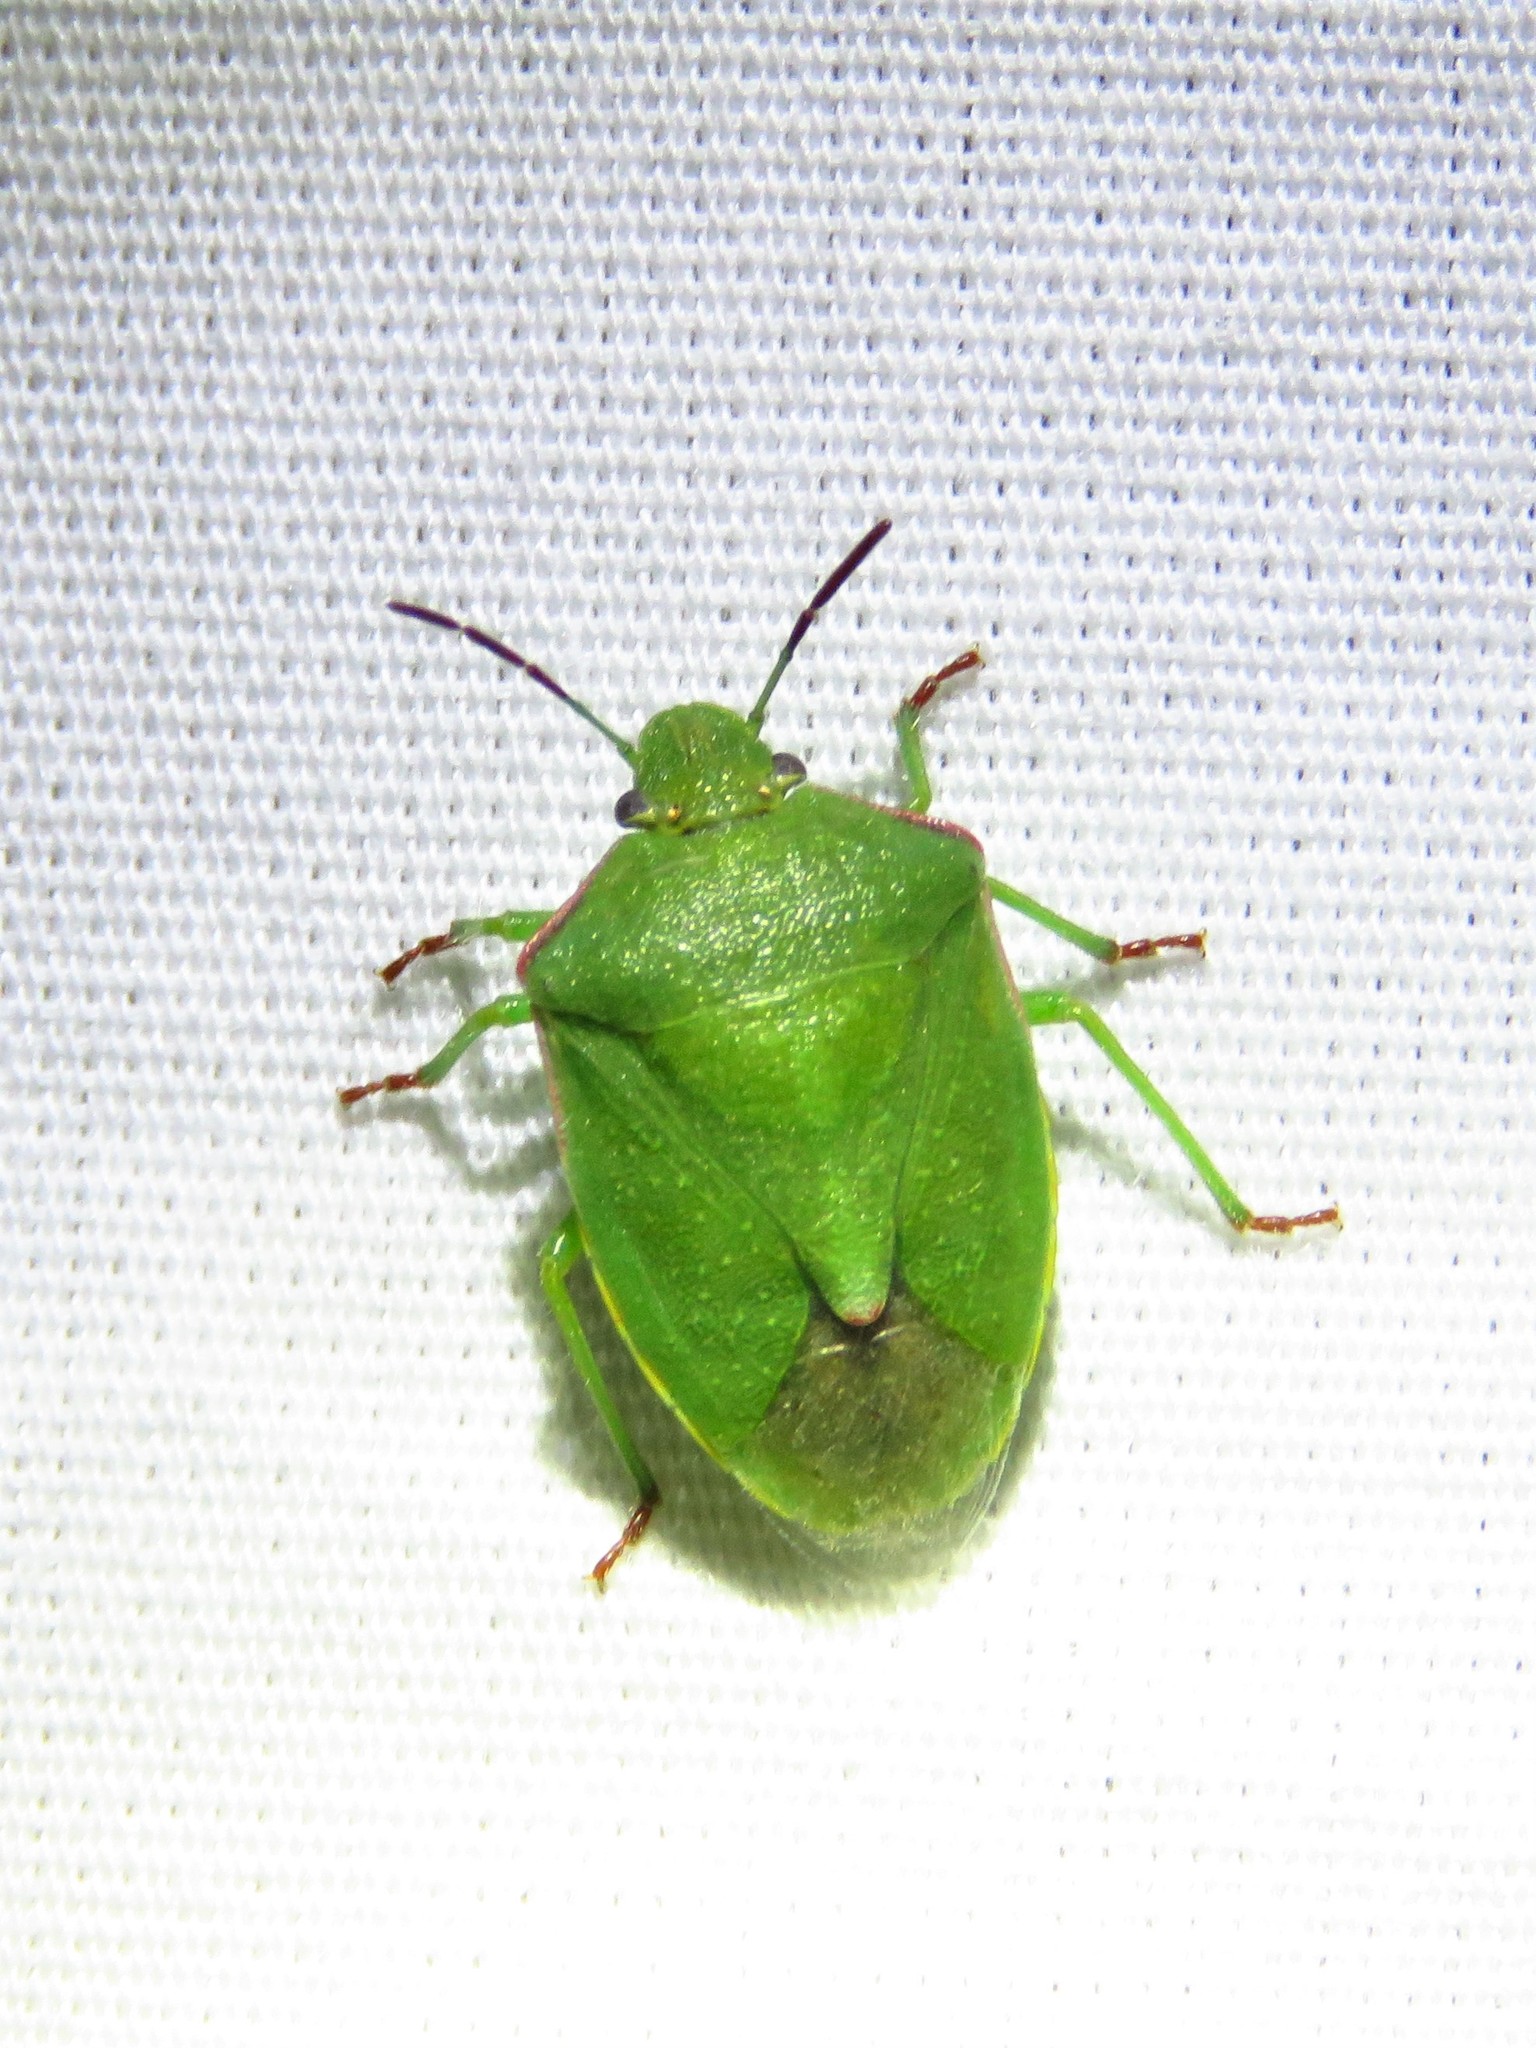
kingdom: Animalia
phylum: Arthropoda
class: Insecta
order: Hemiptera
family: Pentatomidae
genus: Thyanta
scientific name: Thyanta accerra
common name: Stink bug
